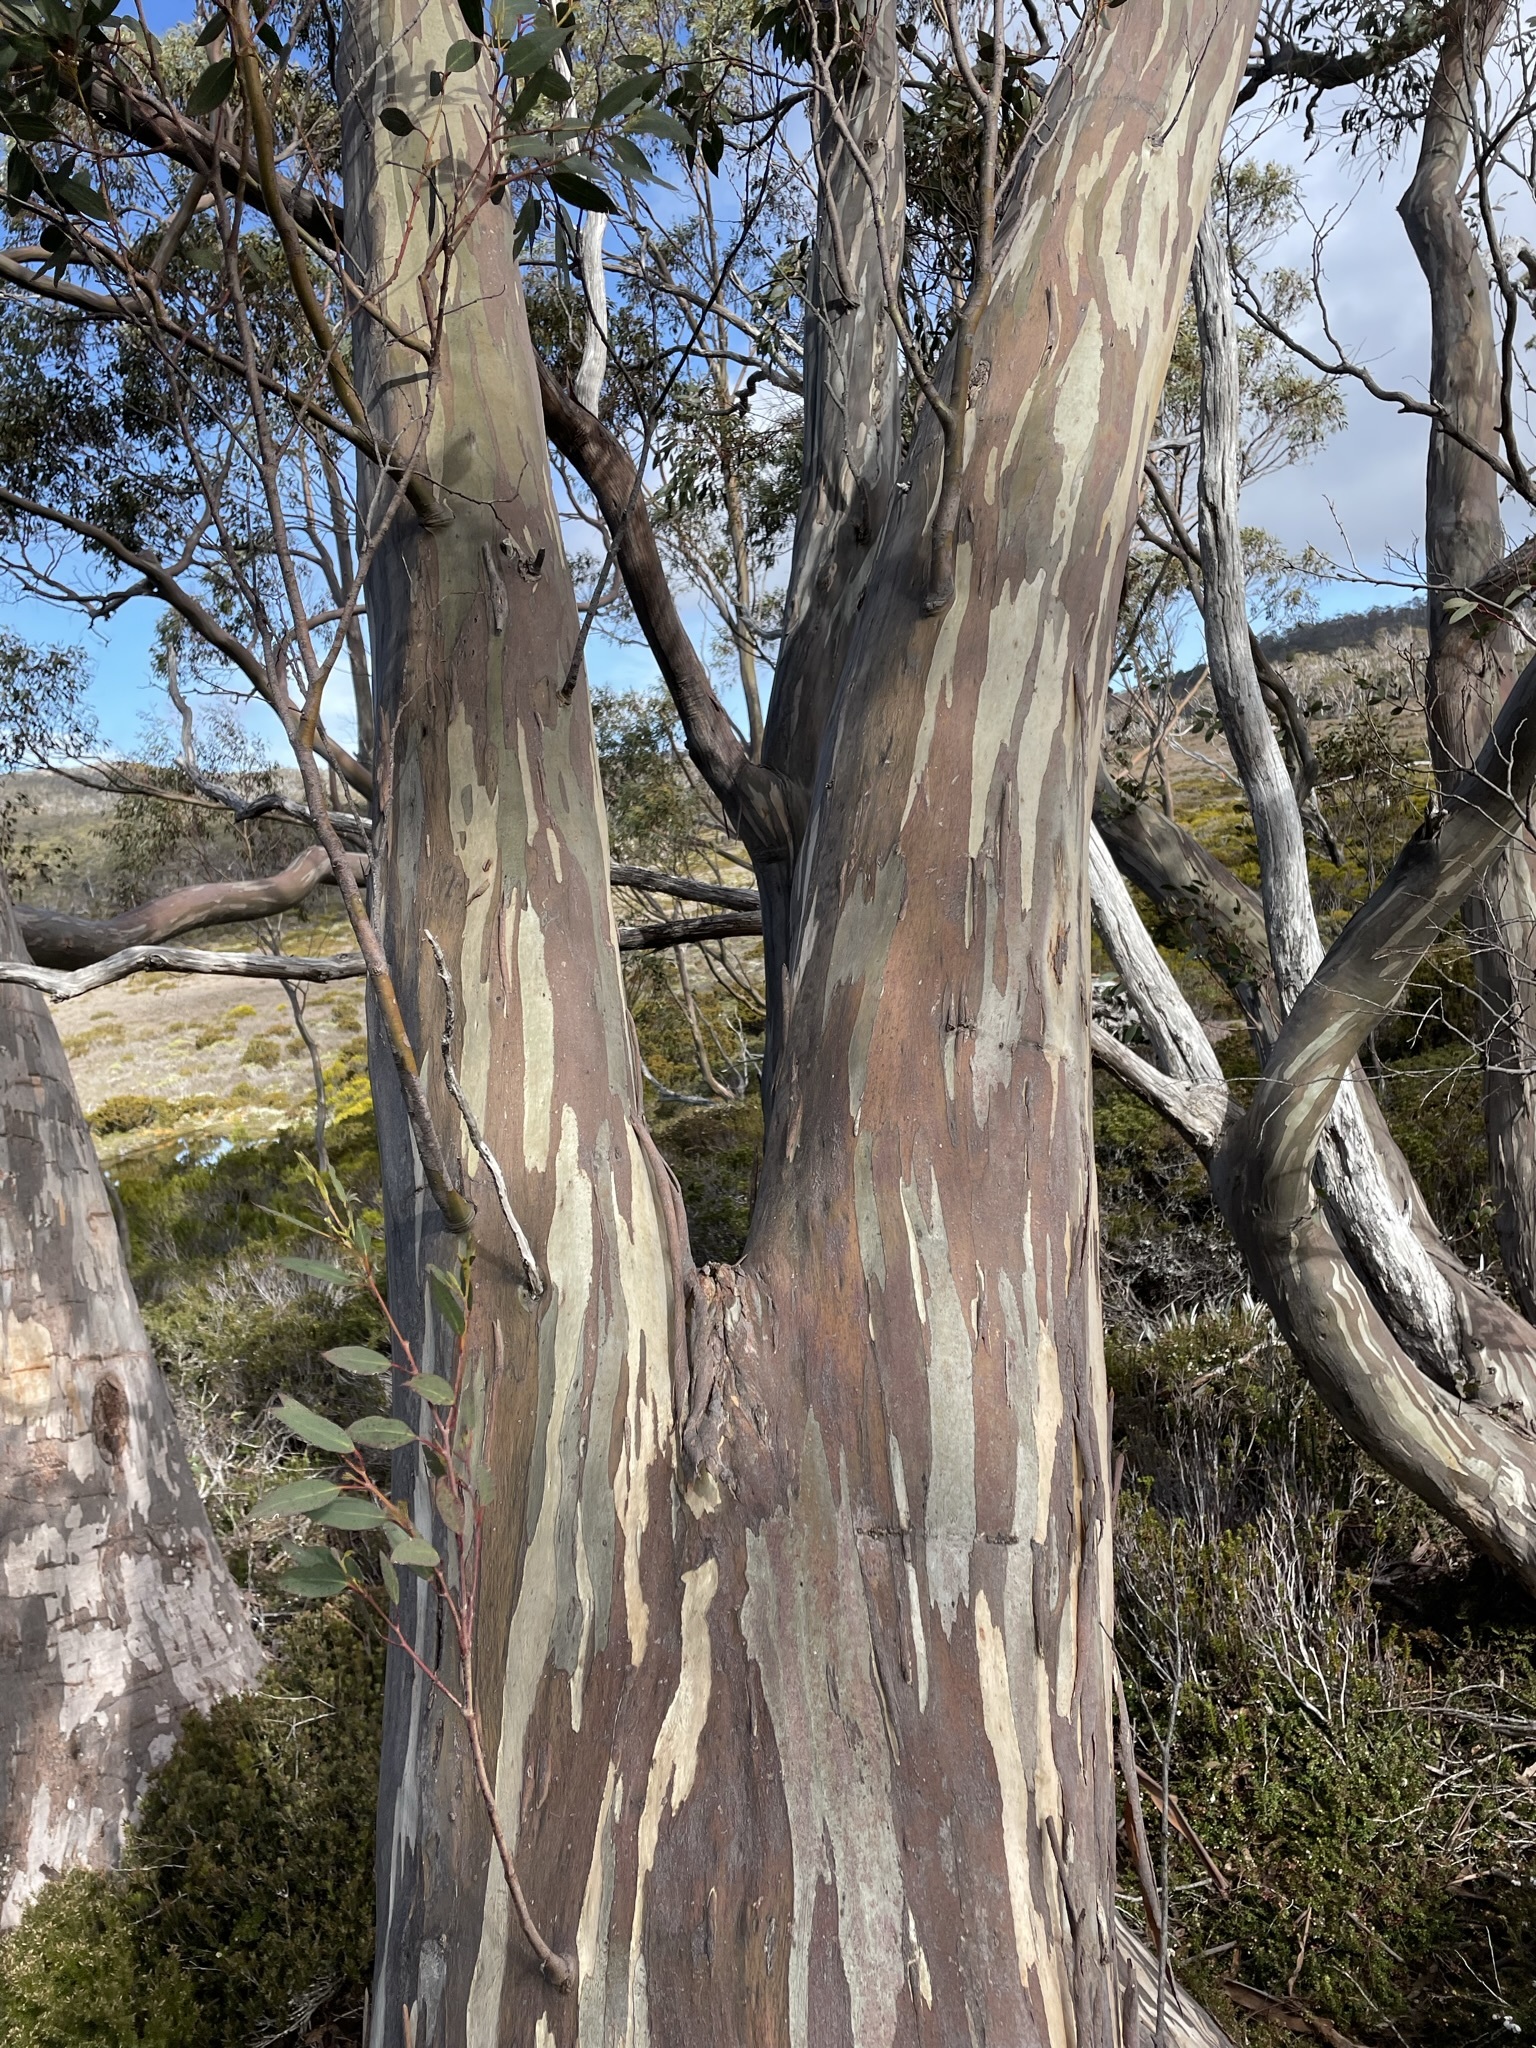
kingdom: Plantae
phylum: Tracheophyta
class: Magnoliopsida
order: Myrtales
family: Myrtaceae
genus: Eucalyptus
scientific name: Eucalyptus coccifera
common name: Tasmanian snow-gum
